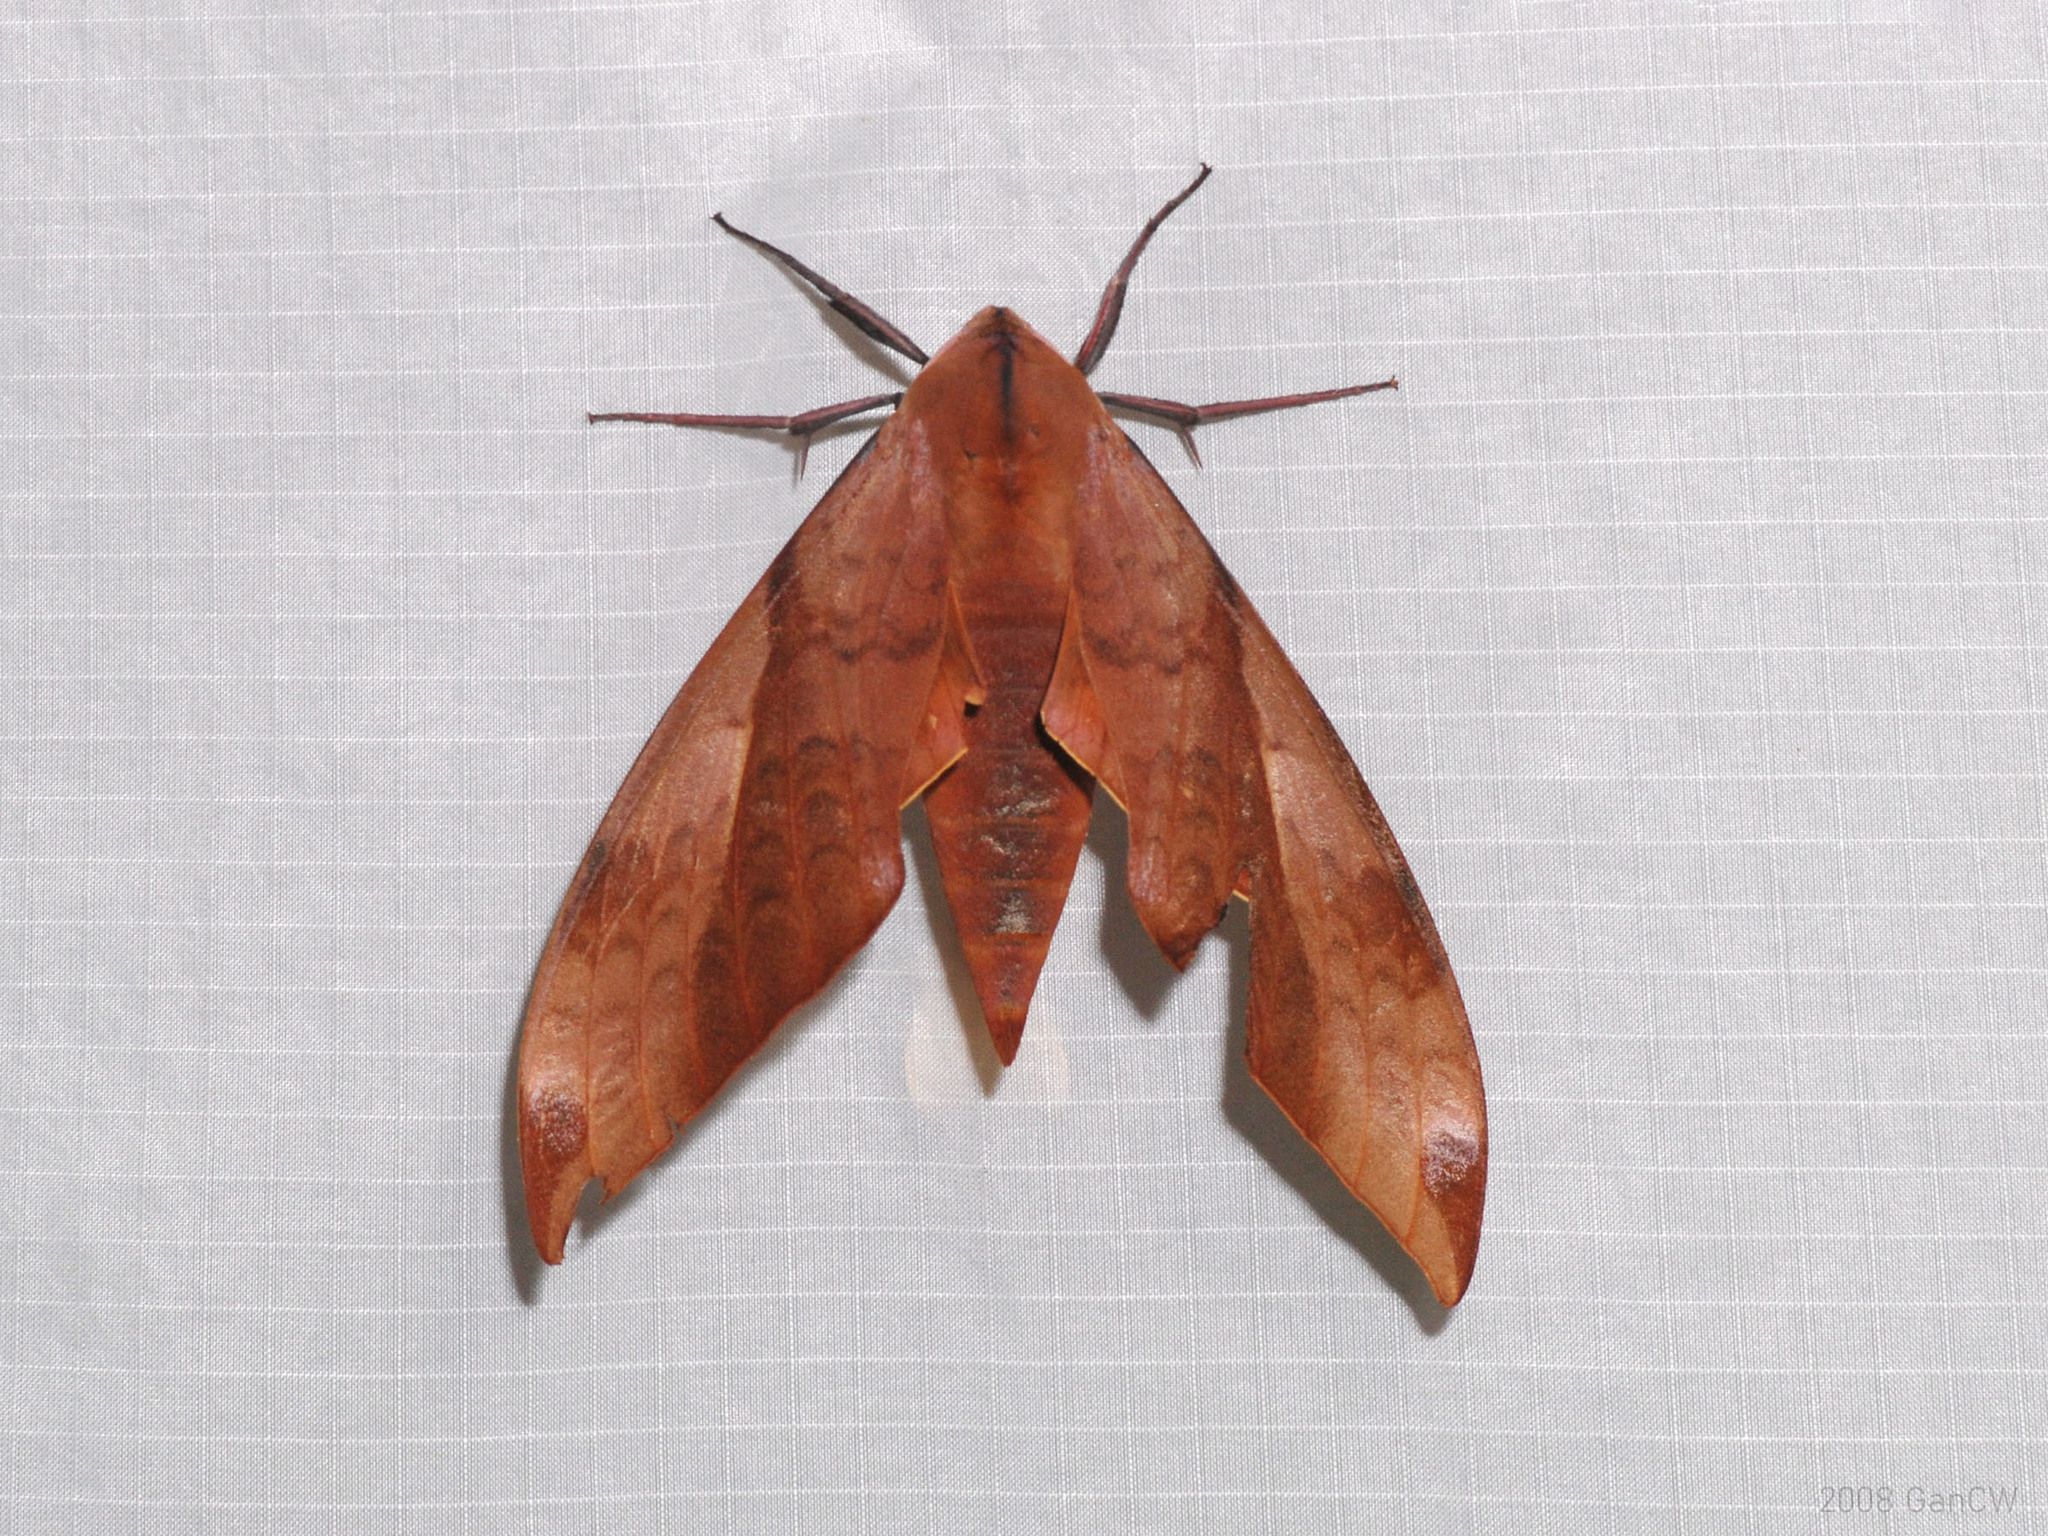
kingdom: Animalia
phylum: Arthropoda
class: Insecta
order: Lepidoptera
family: Sphingidae
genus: Clanis
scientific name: Clanis undulosa
